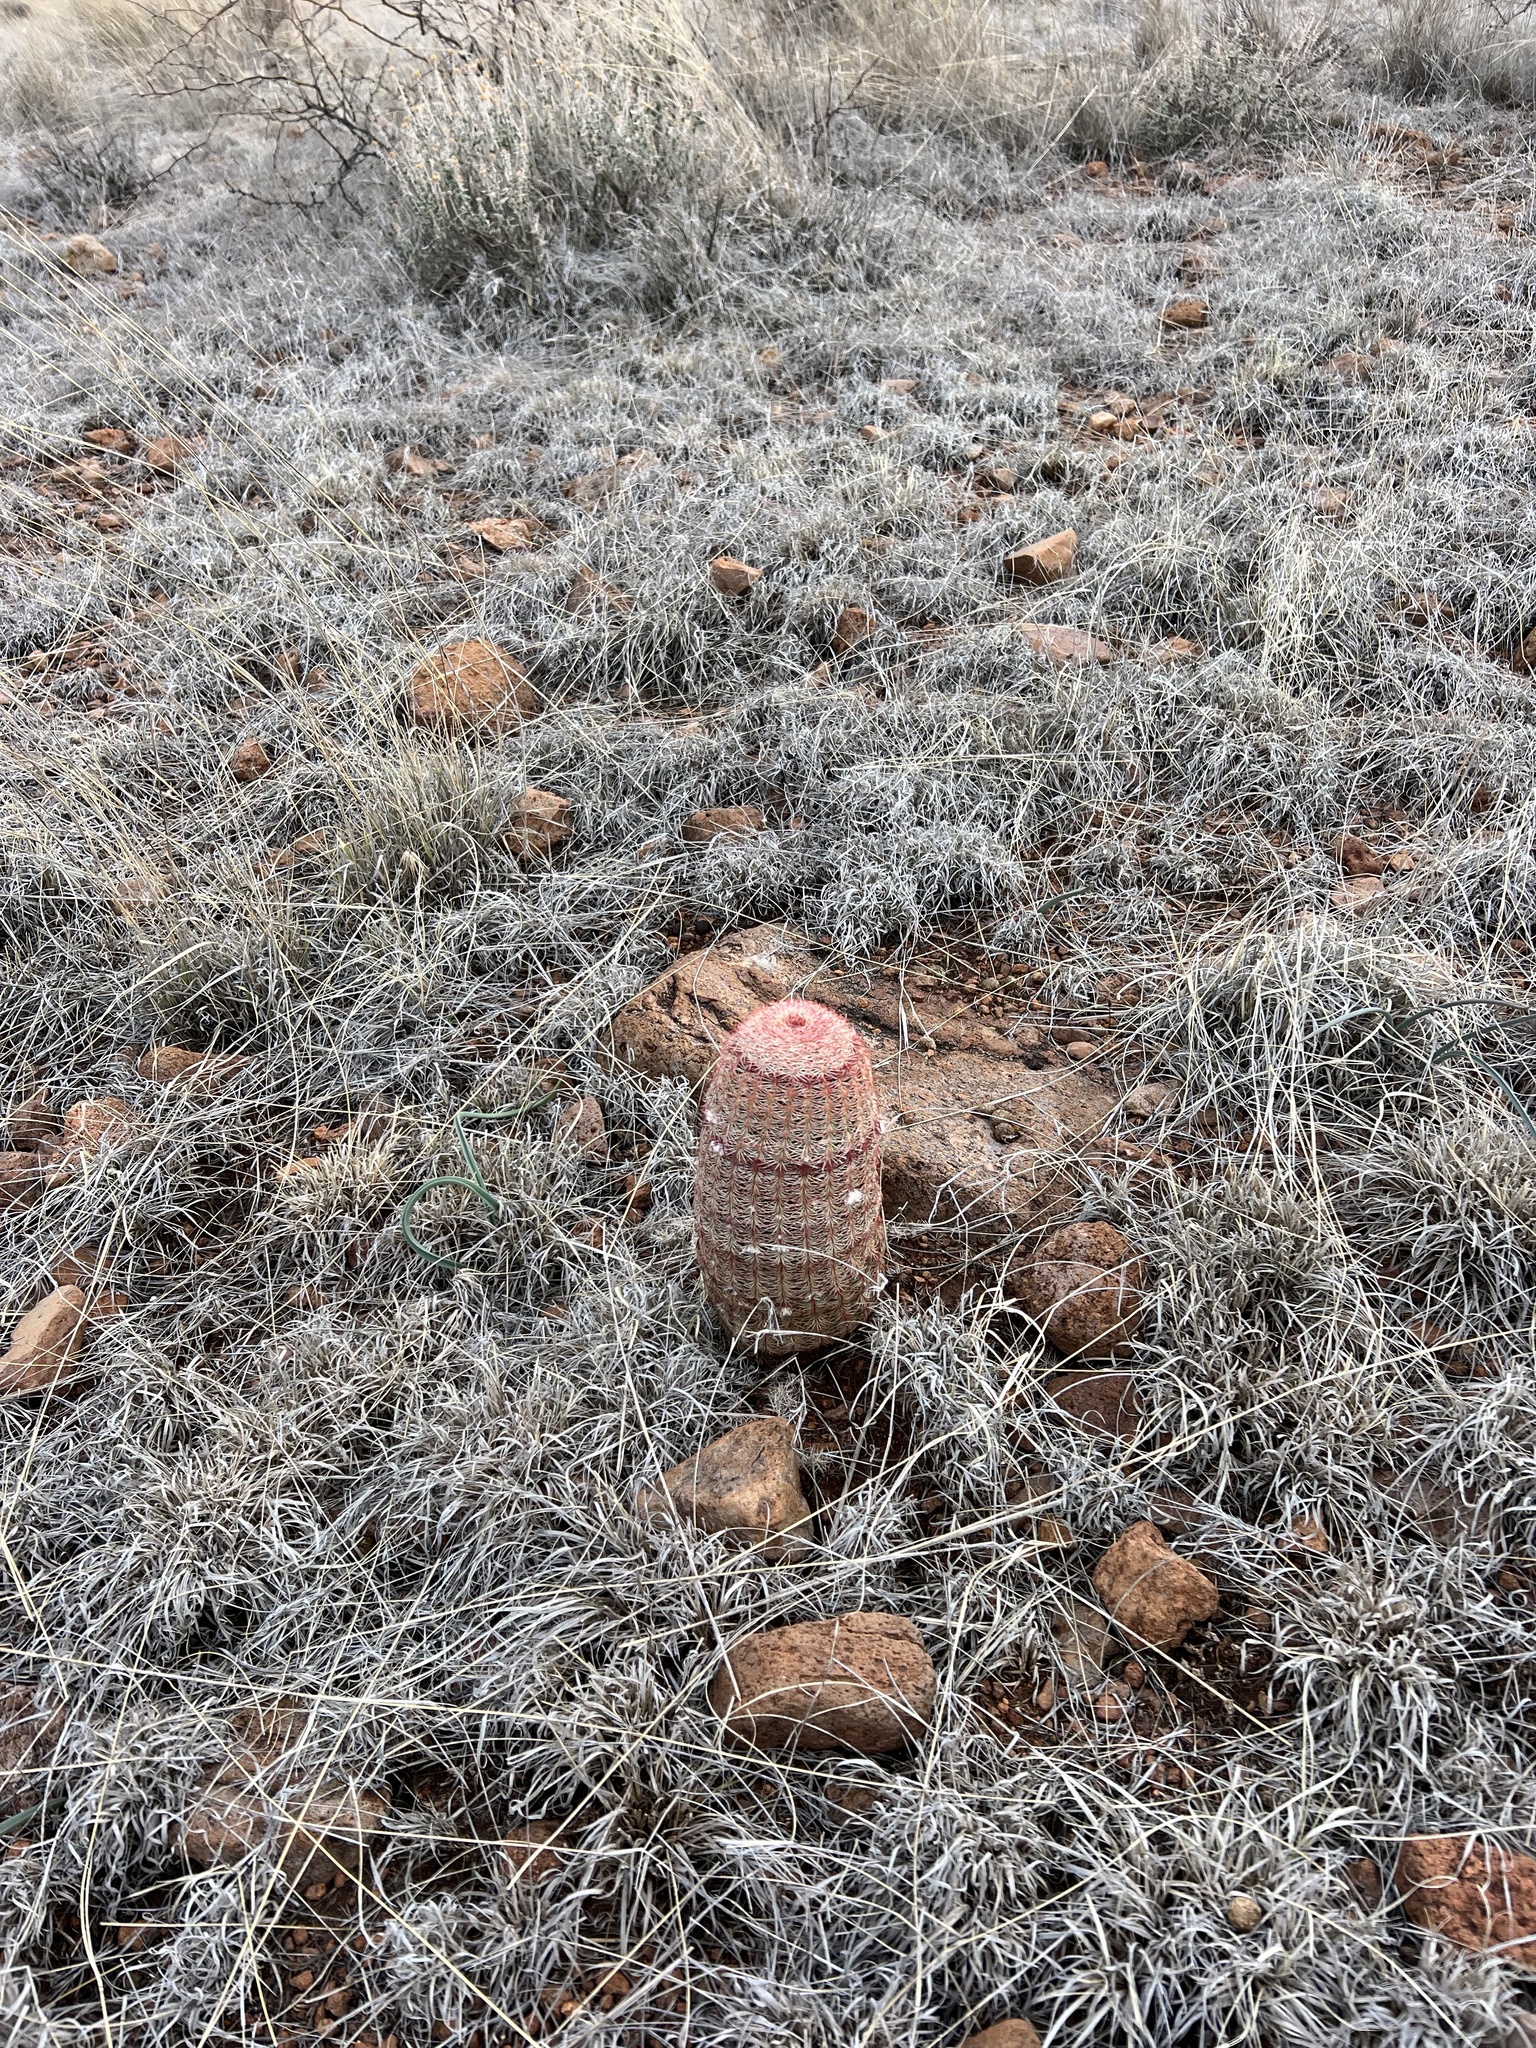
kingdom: Plantae
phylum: Tracheophyta
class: Magnoliopsida
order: Caryophyllales
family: Cactaceae
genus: Echinocereus
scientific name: Echinocereus rigidissimus
